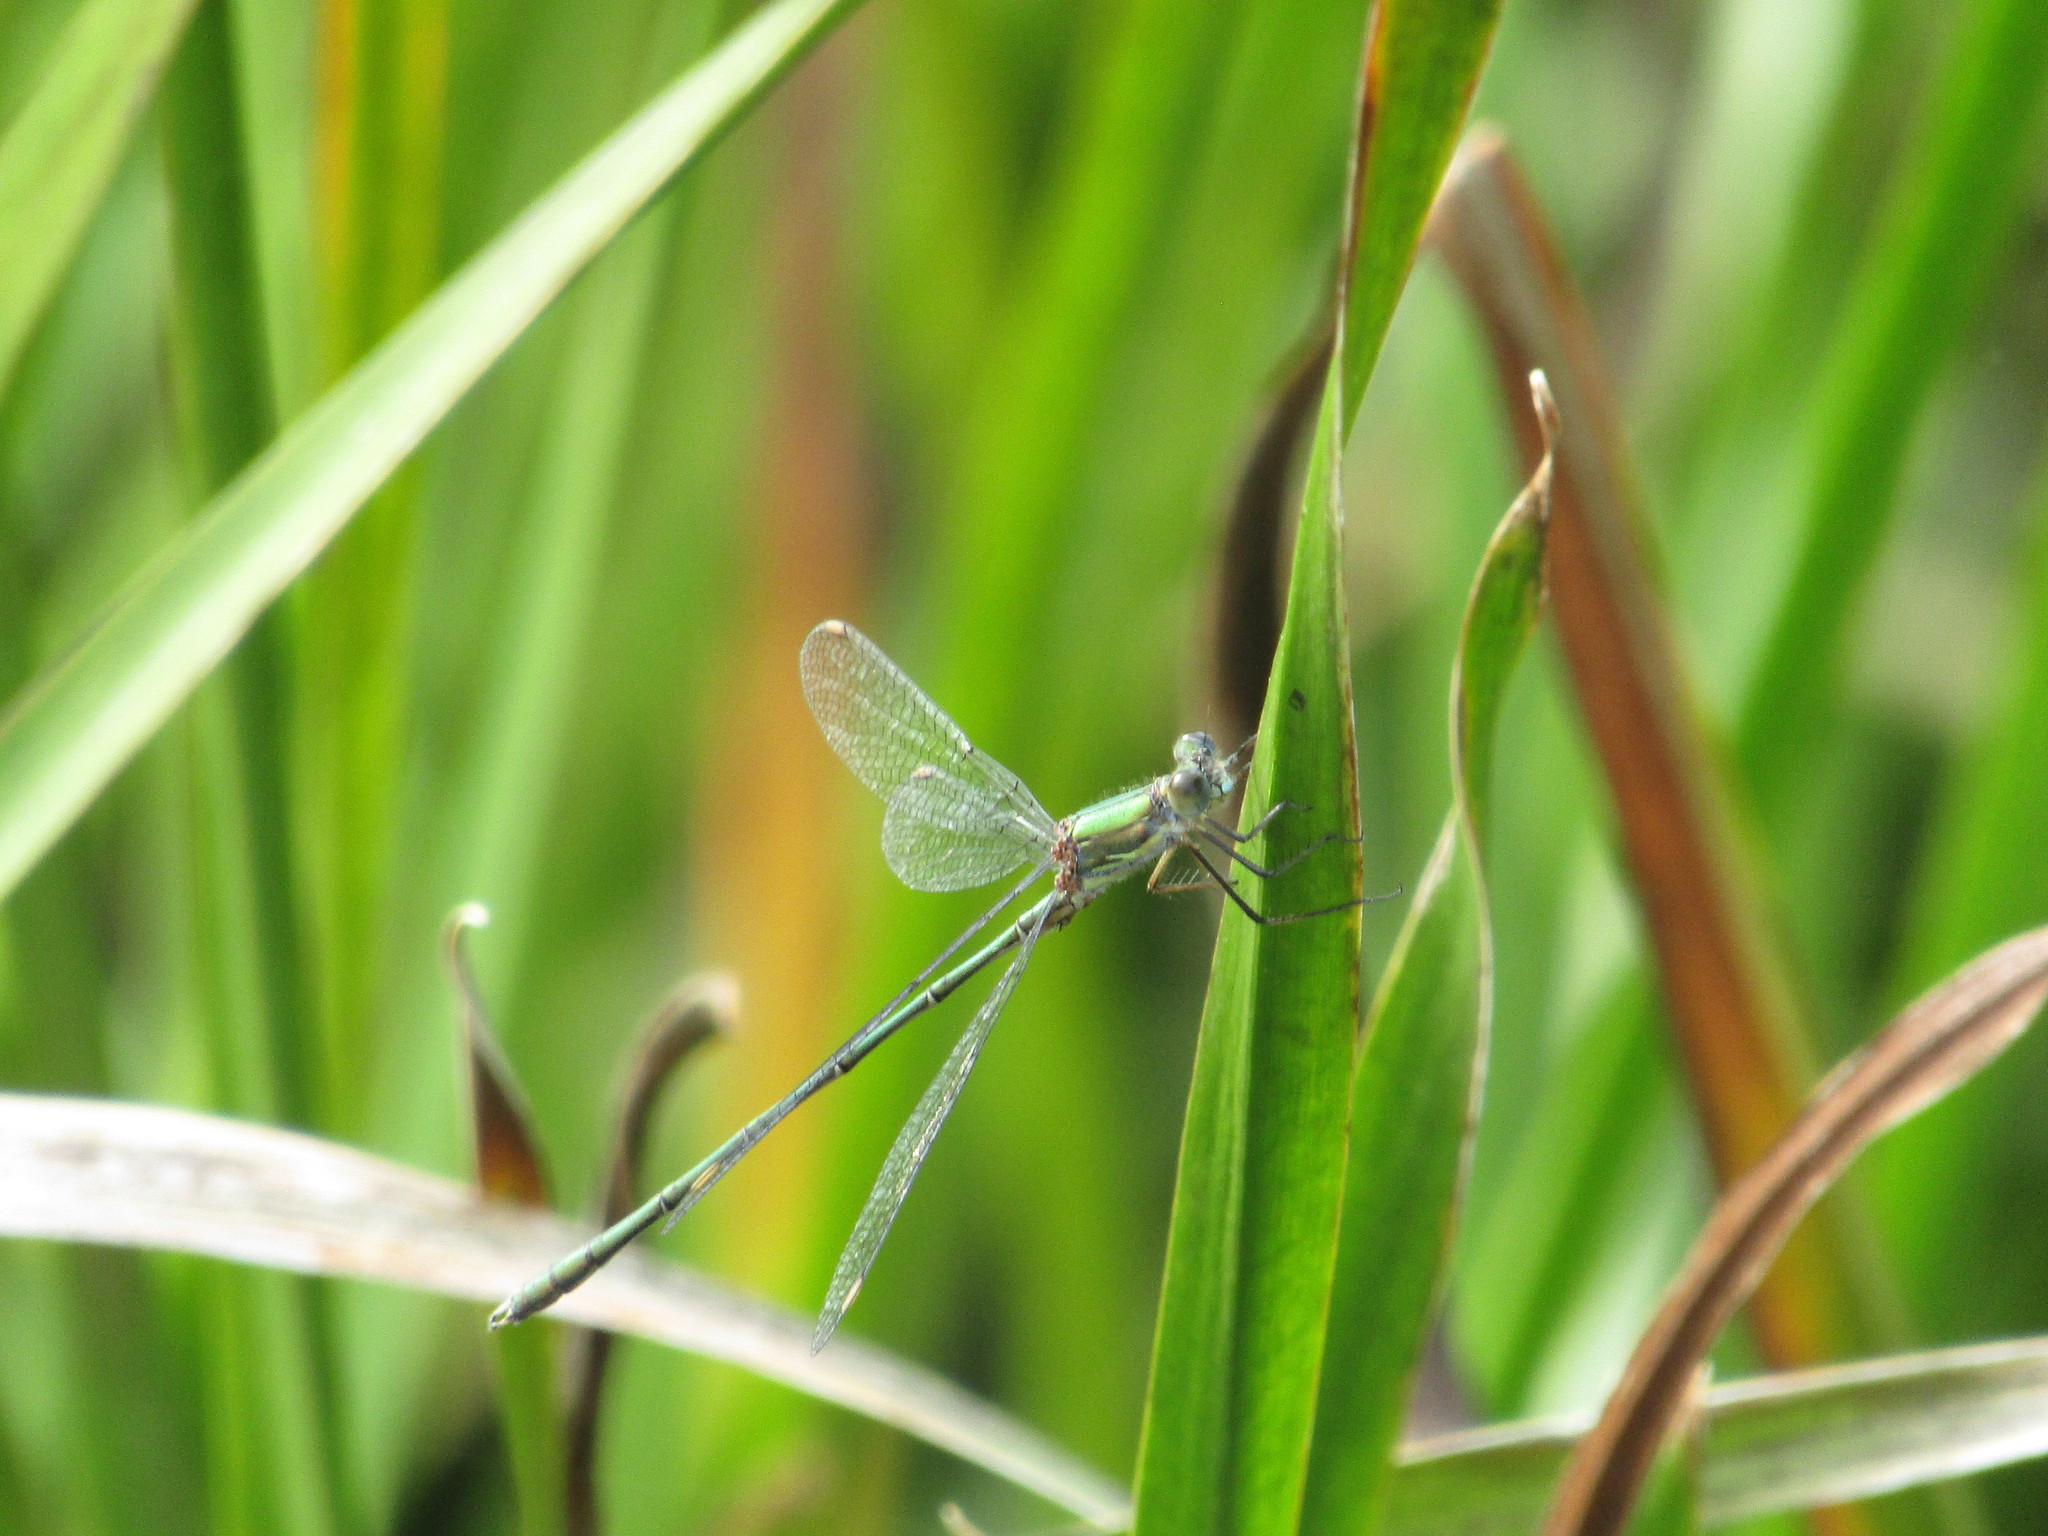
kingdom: Animalia
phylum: Arthropoda
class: Insecta
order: Odonata
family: Lestidae
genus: Chalcolestes
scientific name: Chalcolestes viridis
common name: Green emerald damselfly
